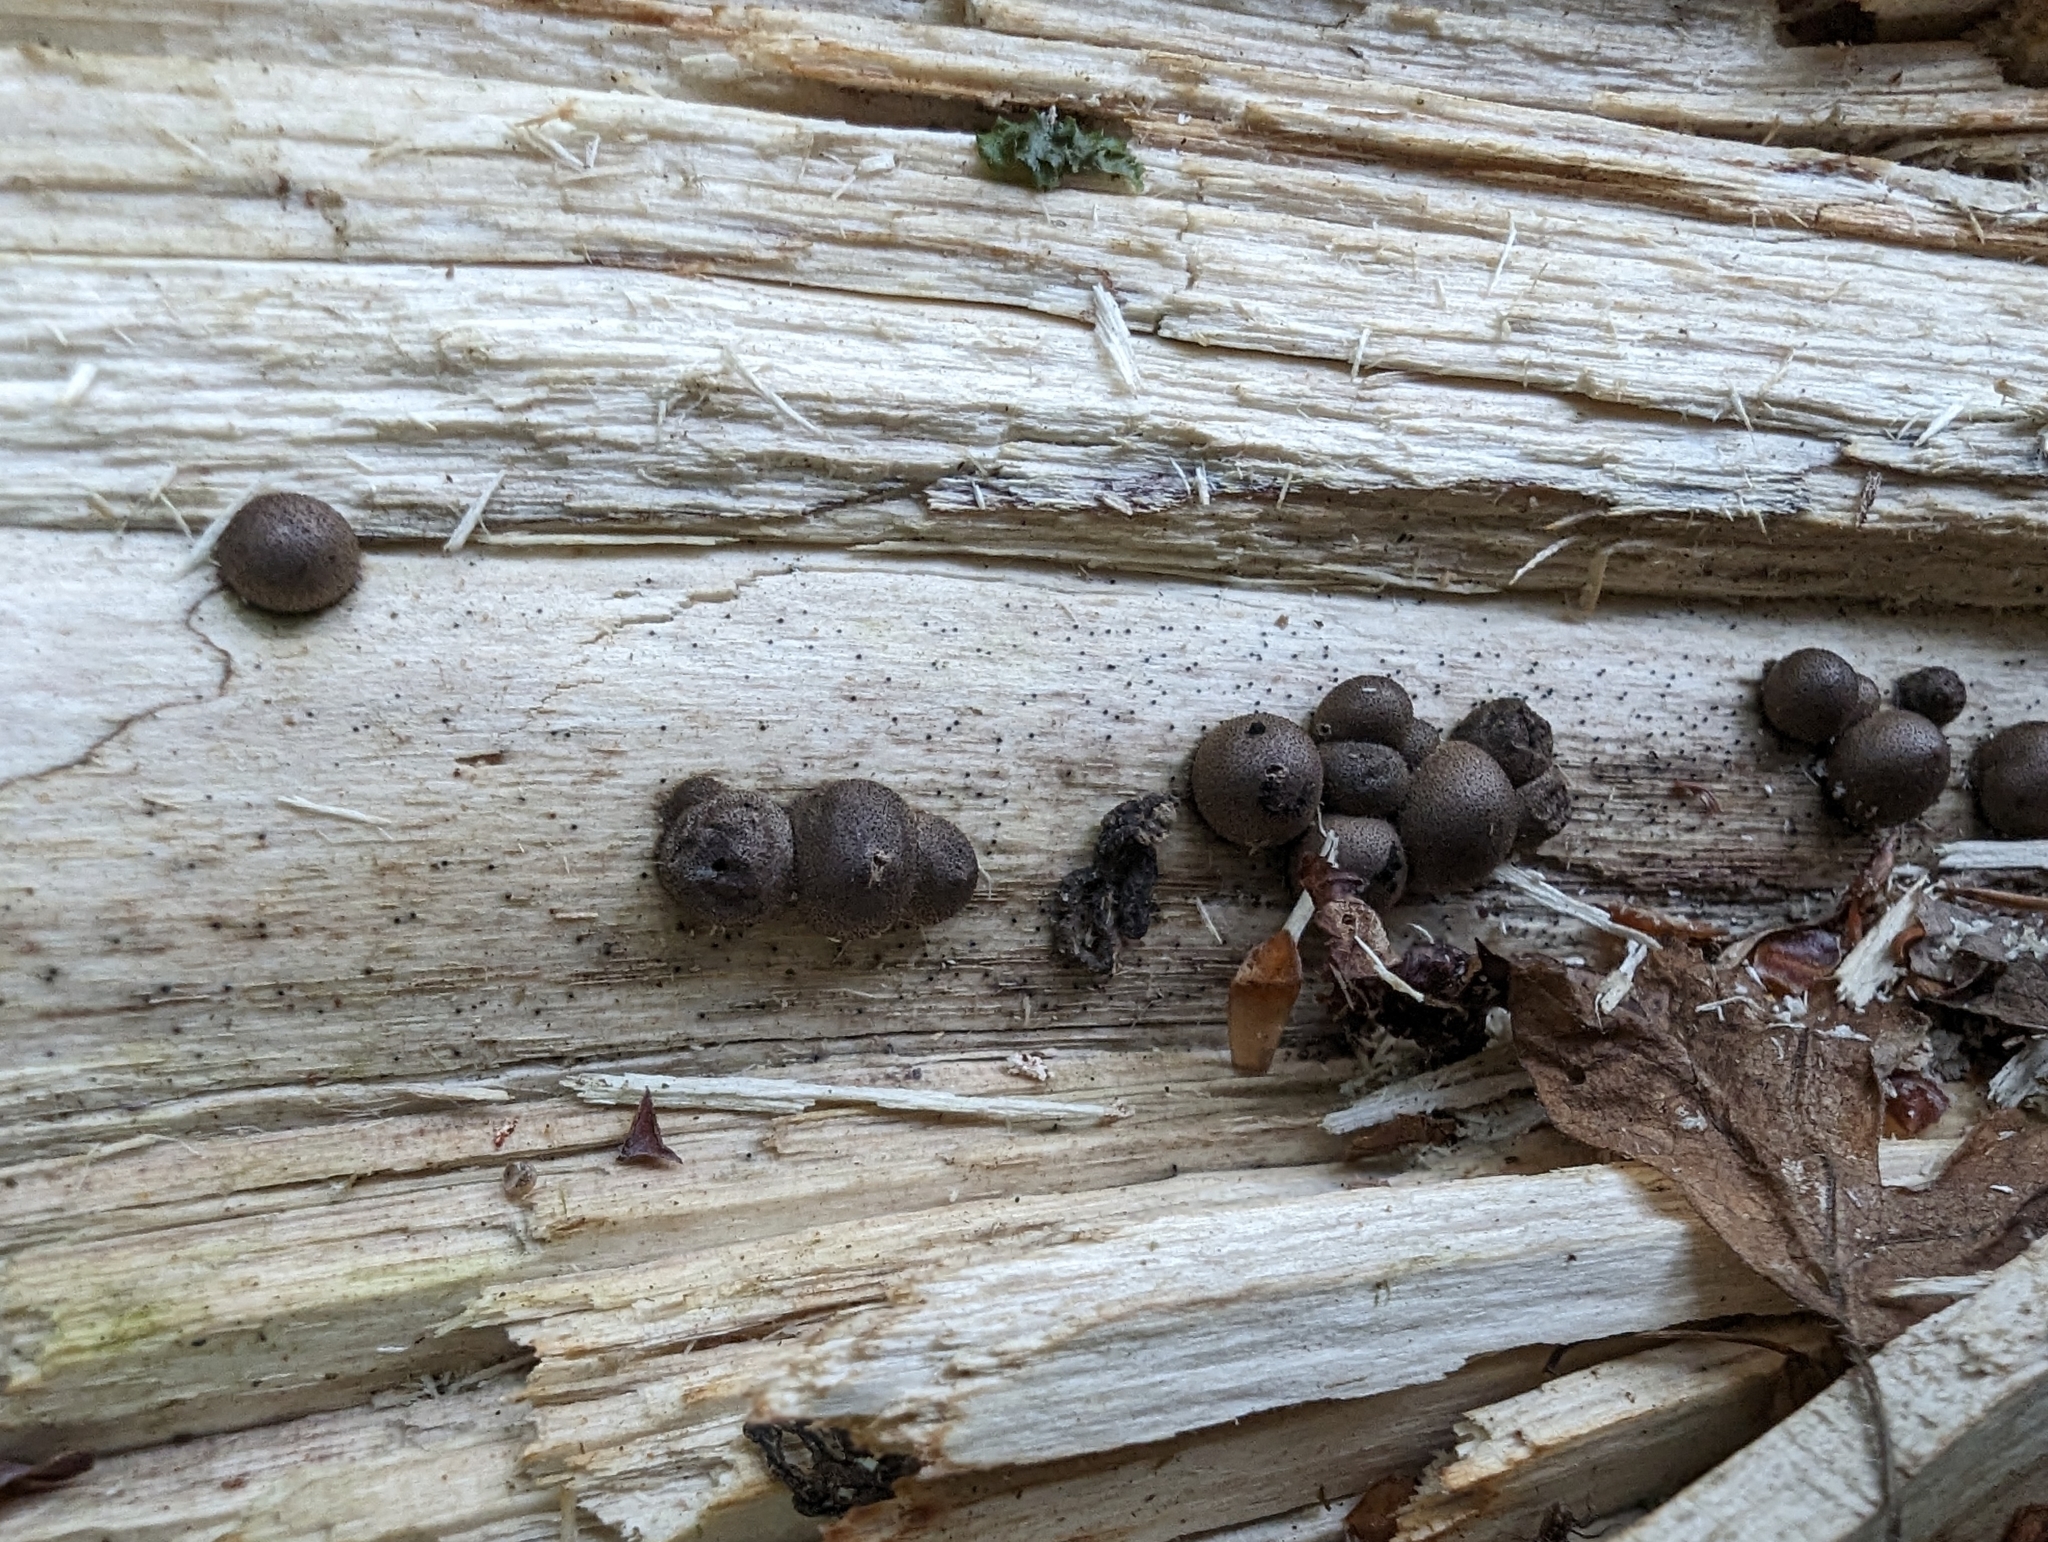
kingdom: Protozoa
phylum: Mycetozoa
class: Myxomycetes
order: Cribrariales
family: Tubiferaceae
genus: Lycogala
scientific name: Lycogala epidendrum
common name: Wolf's milk
